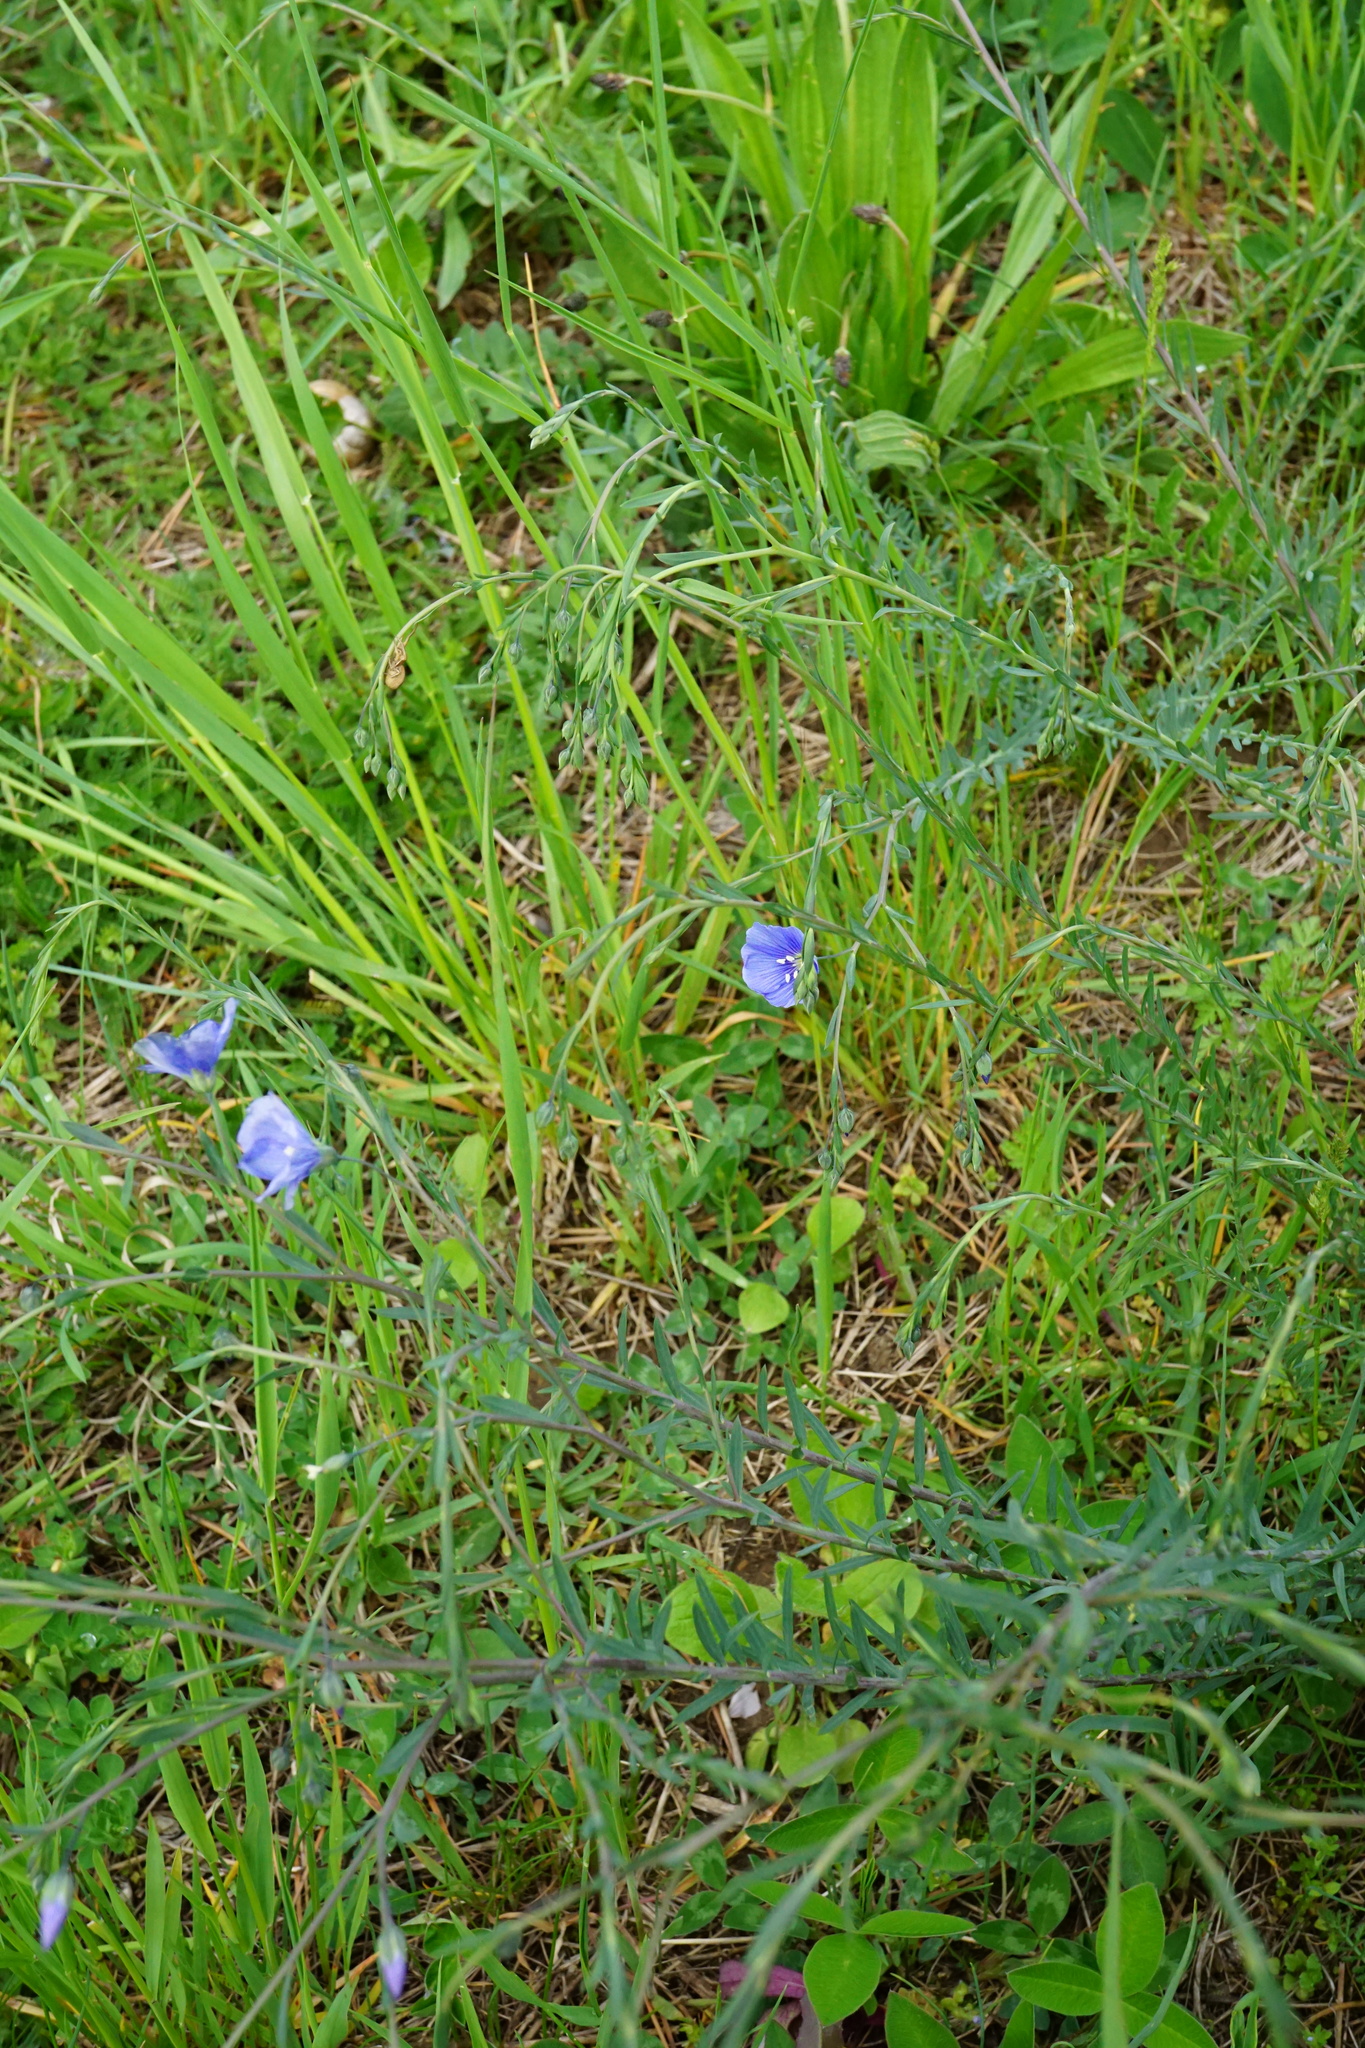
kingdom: Plantae
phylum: Tracheophyta
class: Magnoliopsida
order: Malpighiales
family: Linaceae
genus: Linum
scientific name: Linum austriacum
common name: Austrian flax
